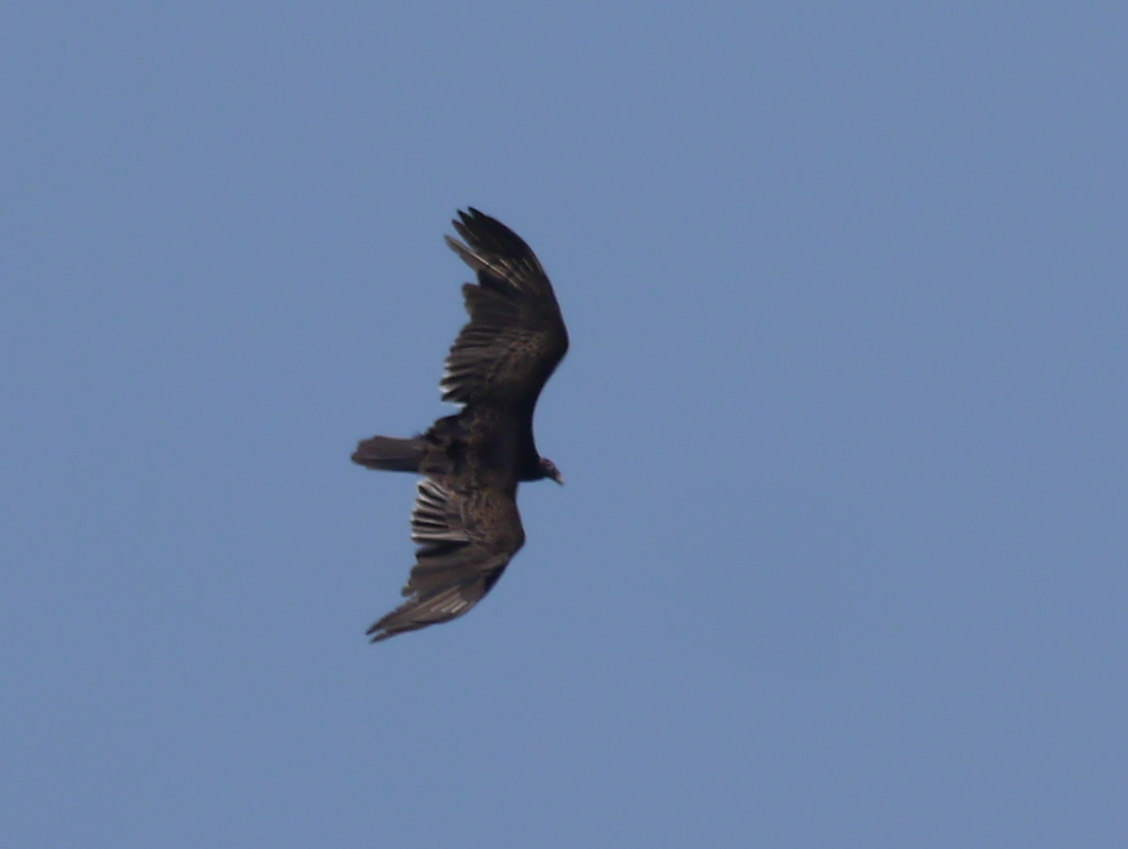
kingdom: Animalia
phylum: Chordata
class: Aves
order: Accipitriformes
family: Cathartidae
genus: Cathartes
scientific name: Cathartes aura
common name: Turkey vulture
